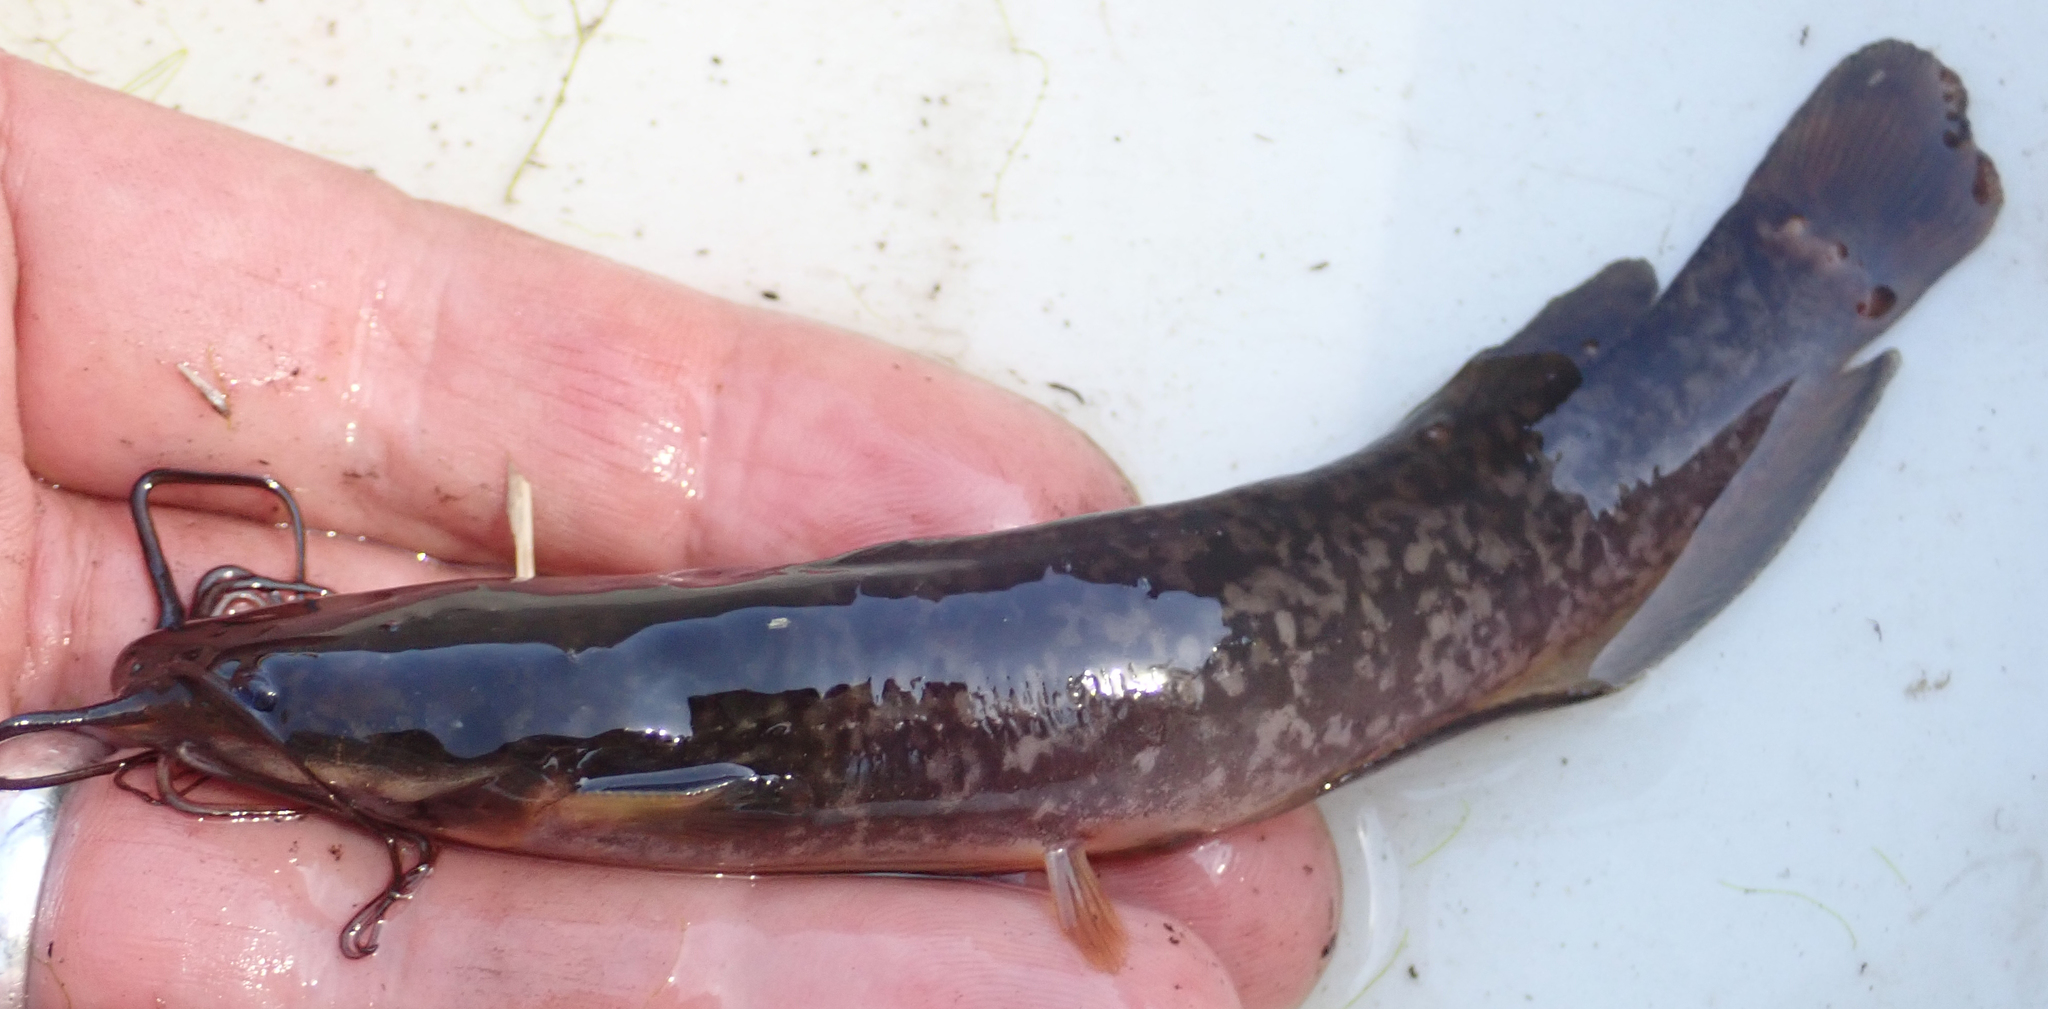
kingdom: Animalia
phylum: Chordata
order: Siluriformes
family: Clariidae
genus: Clarias
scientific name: Clarias ngamensis
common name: Blunt-toothed african catfish
